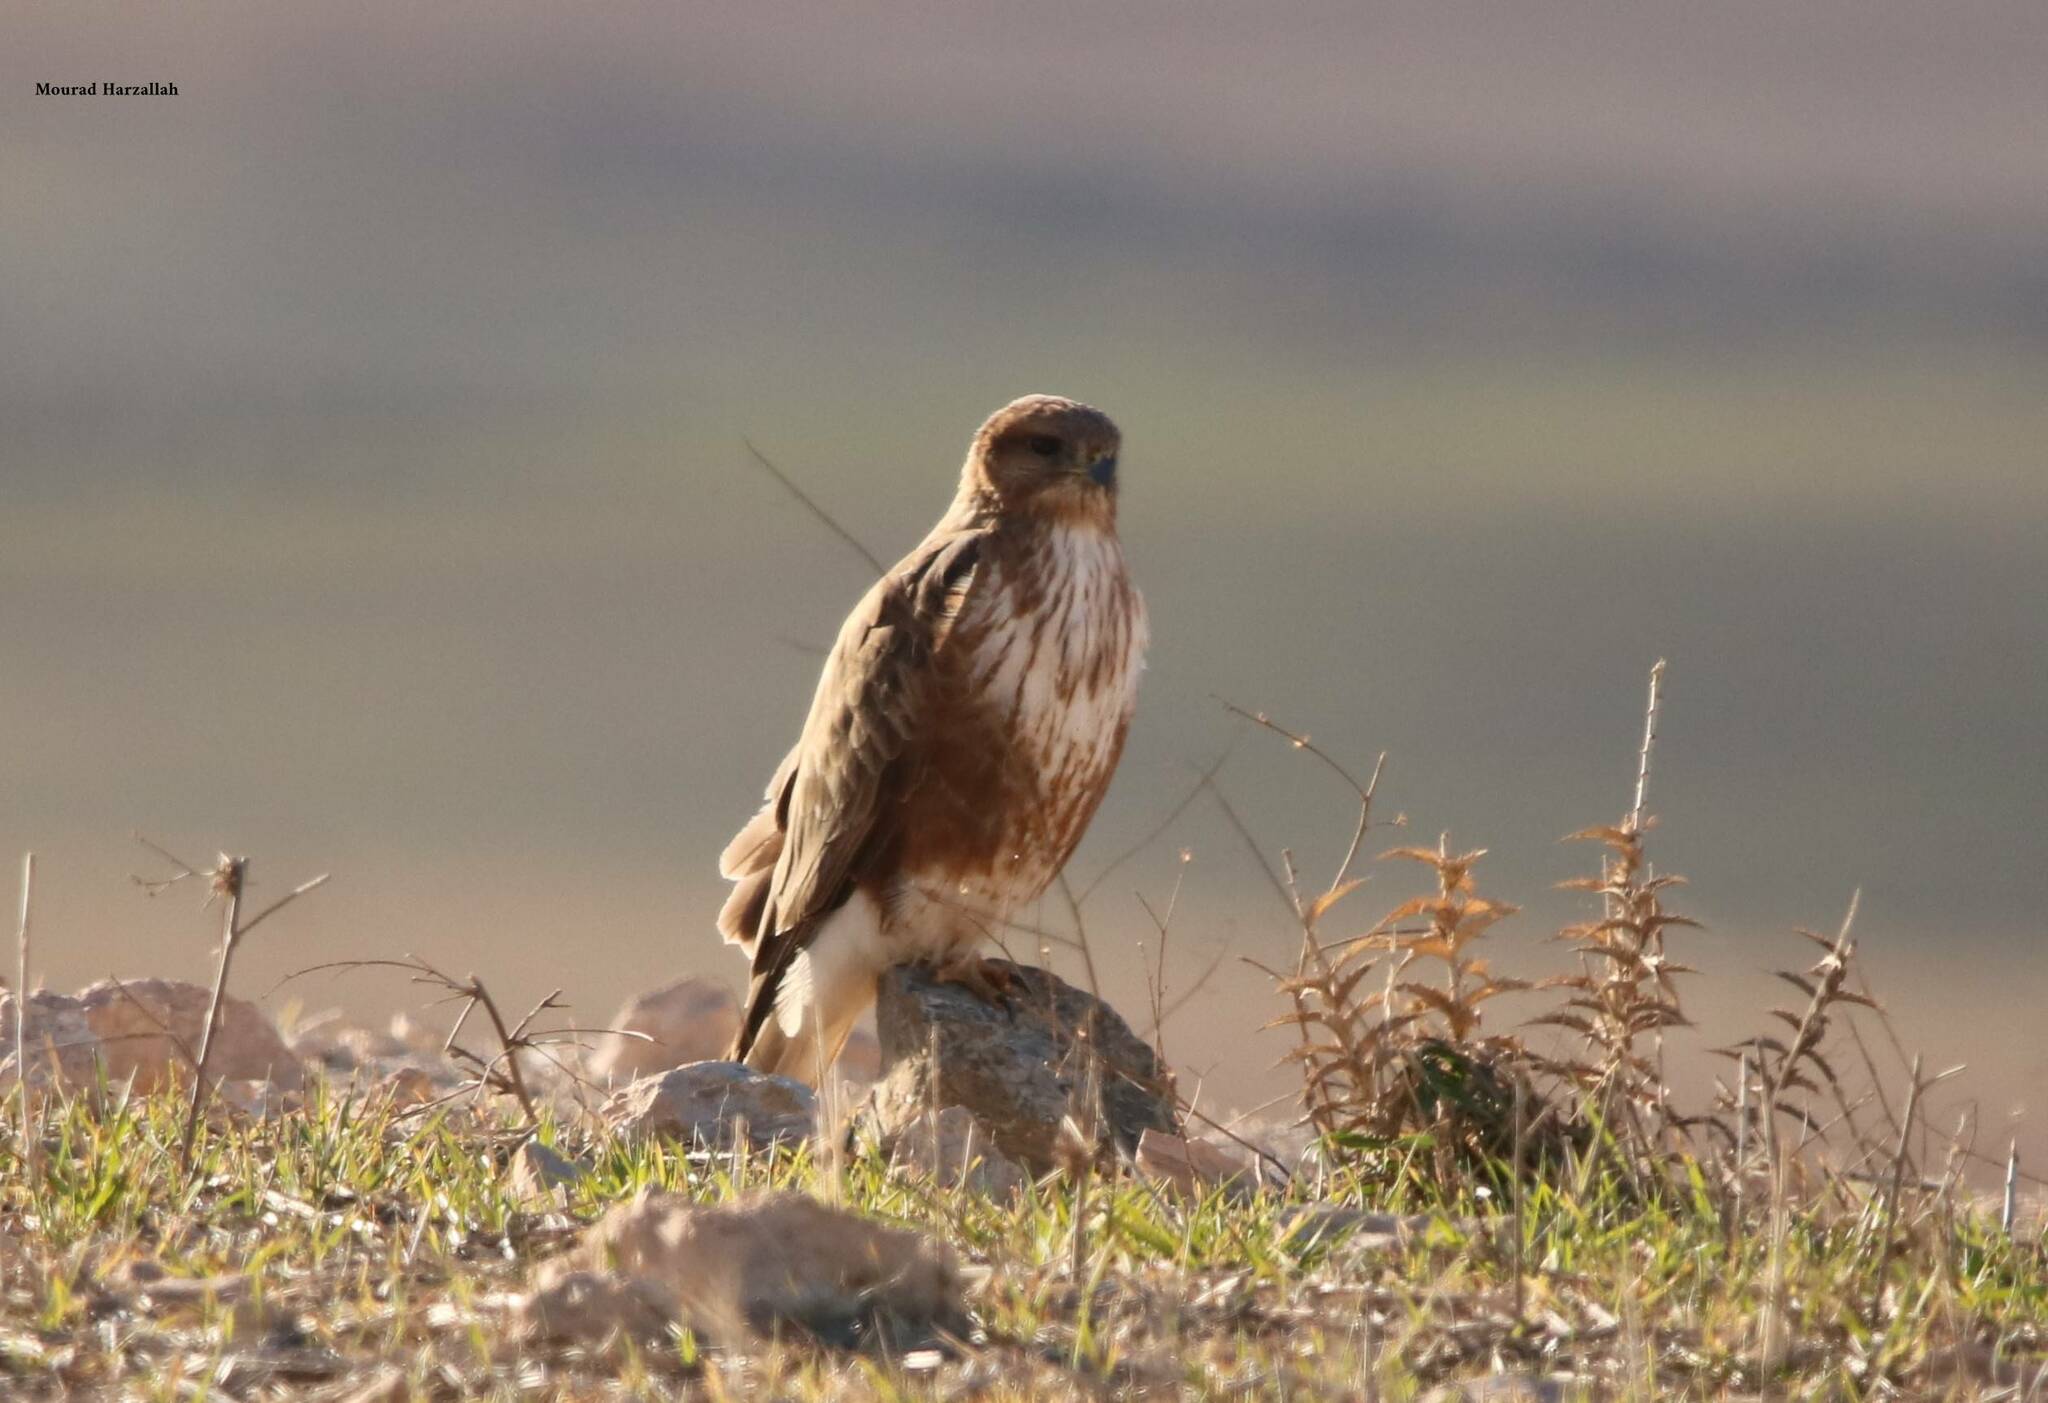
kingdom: Animalia
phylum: Chordata
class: Aves
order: Accipitriformes
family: Accipitridae
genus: Buteo
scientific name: Buteo rufinus
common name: Long-legged buzzard
